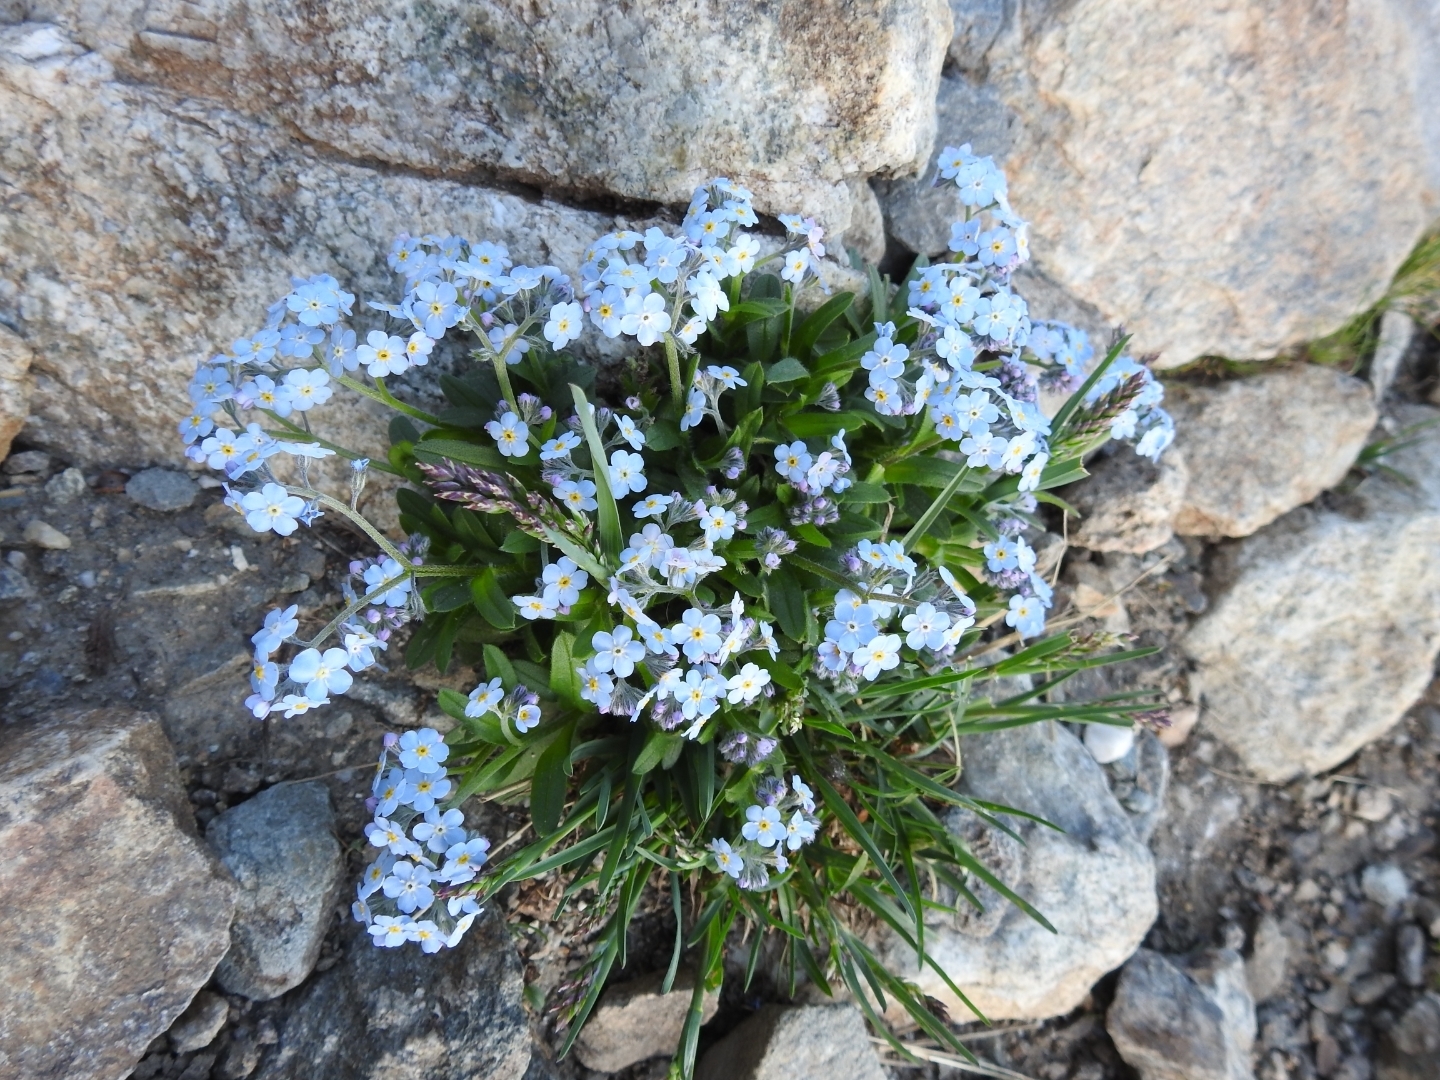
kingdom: Plantae
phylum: Tracheophyta
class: Magnoliopsida
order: Boraginales
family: Boraginaceae
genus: Myosotis
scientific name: Myosotis alpestris
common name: Alpine forget-me-not
